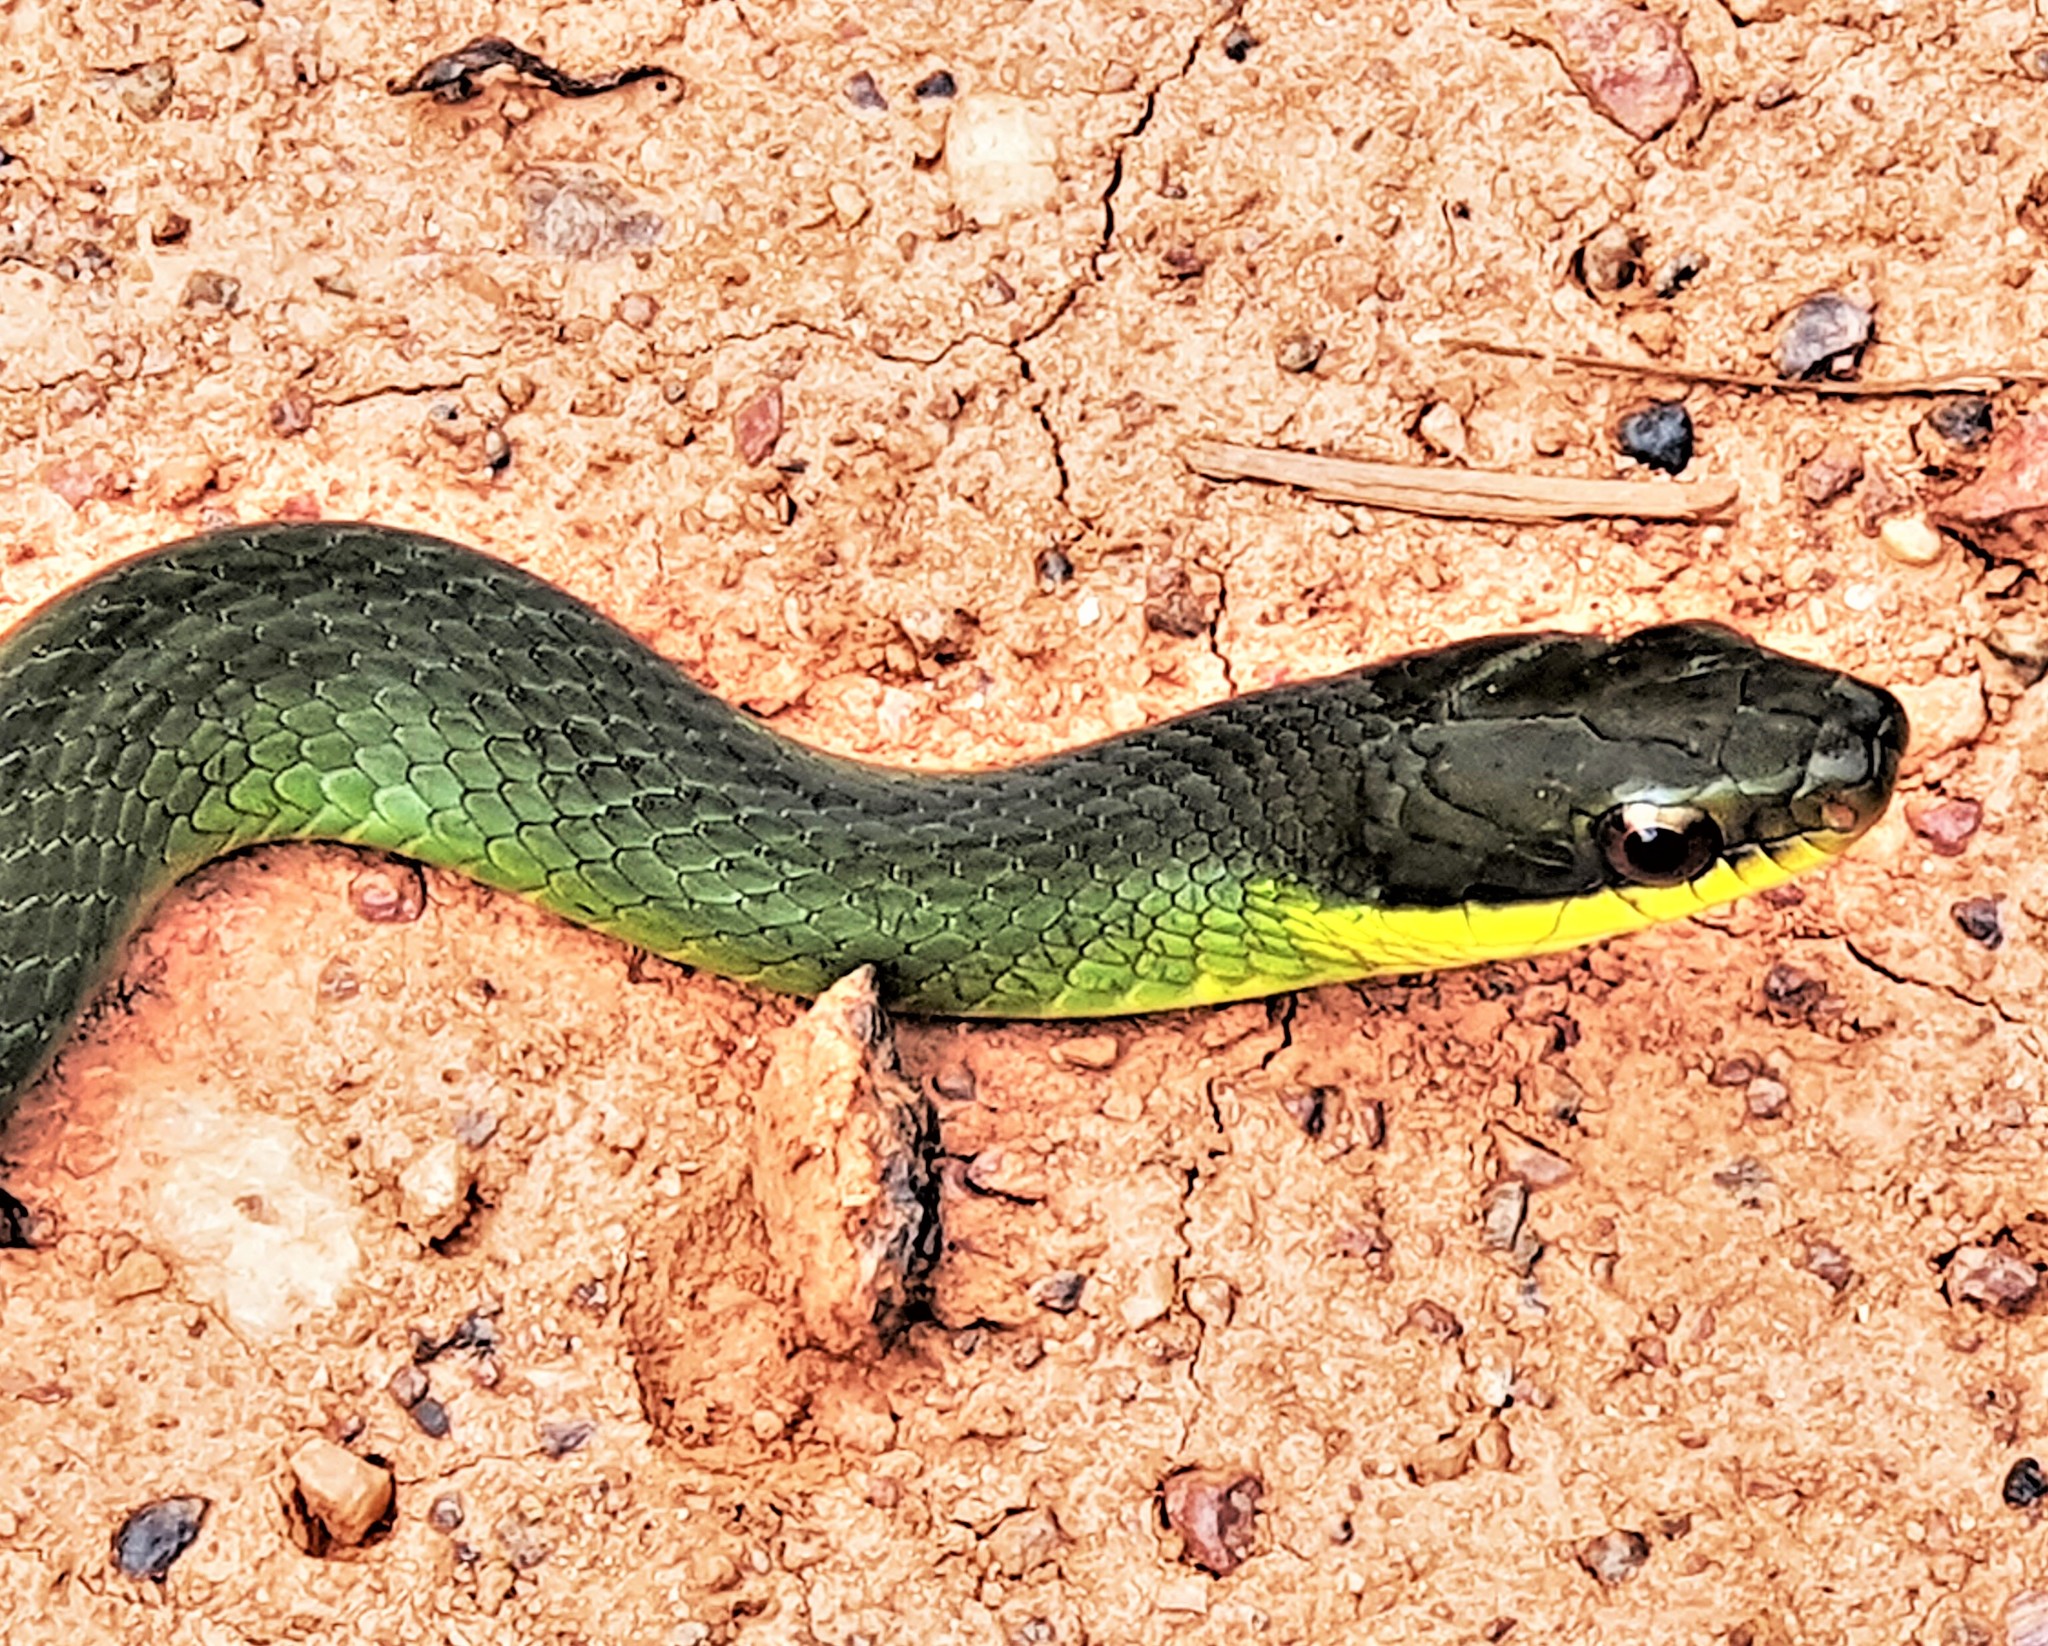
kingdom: Animalia
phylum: Chordata
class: Squamata
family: Colubridae
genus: Drymoluber
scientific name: Drymoluber dichrous
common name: Northern woodland racer
